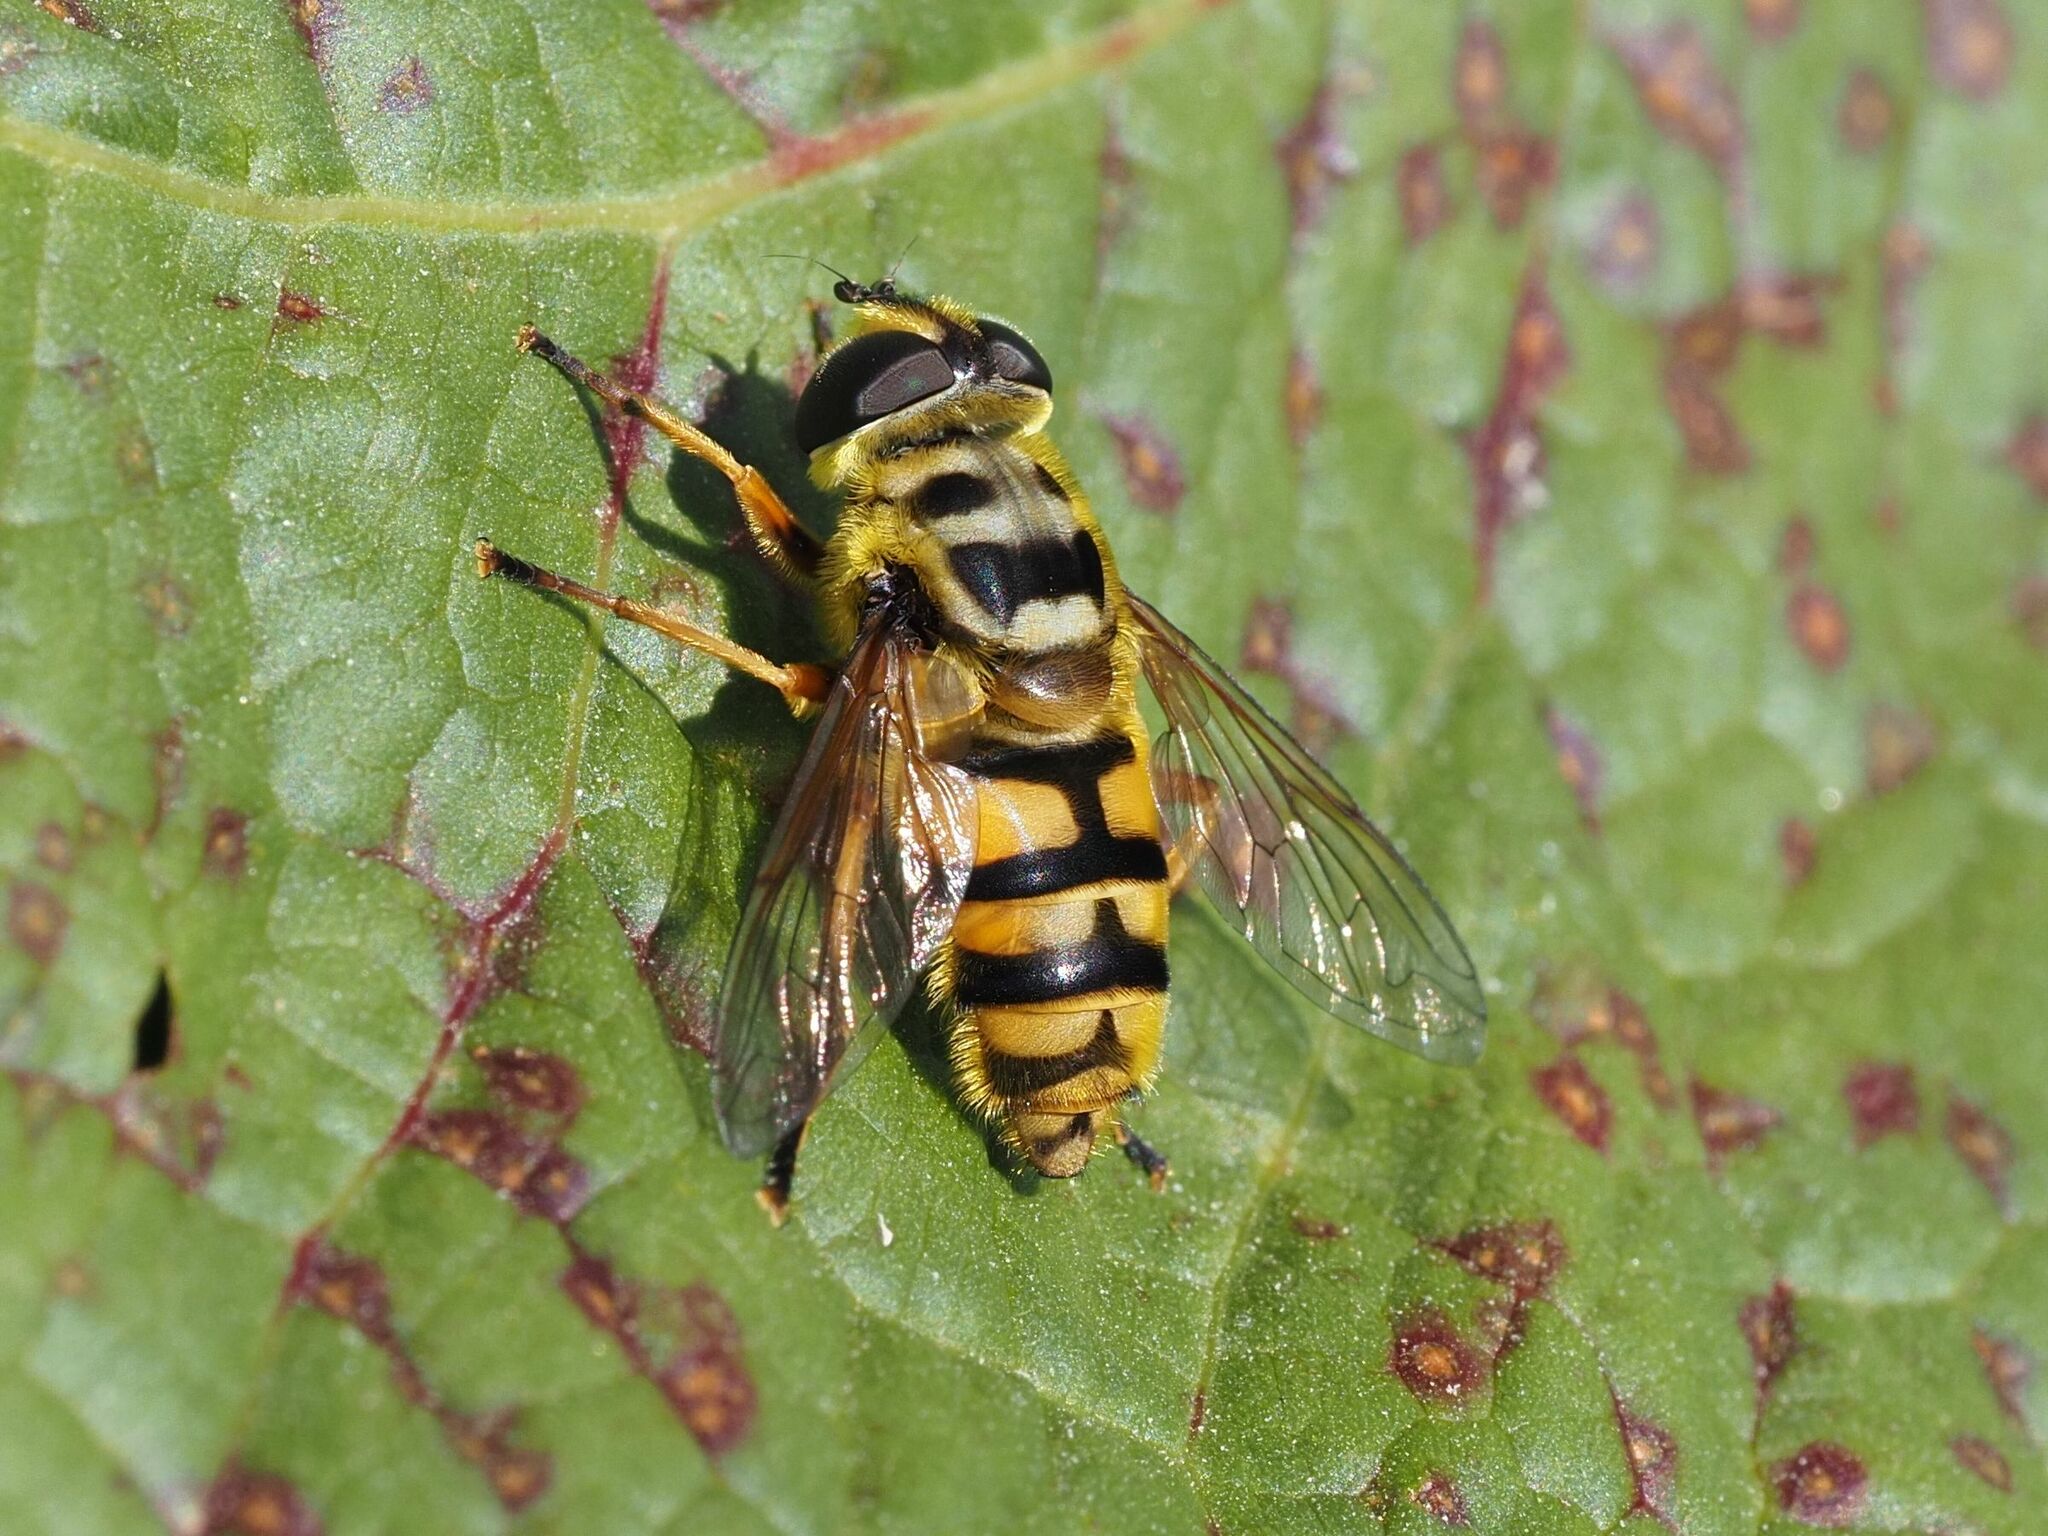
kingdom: Animalia
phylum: Arthropoda
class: Insecta
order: Diptera
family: Syrphidae
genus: Myathropa
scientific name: Myathropa florea
